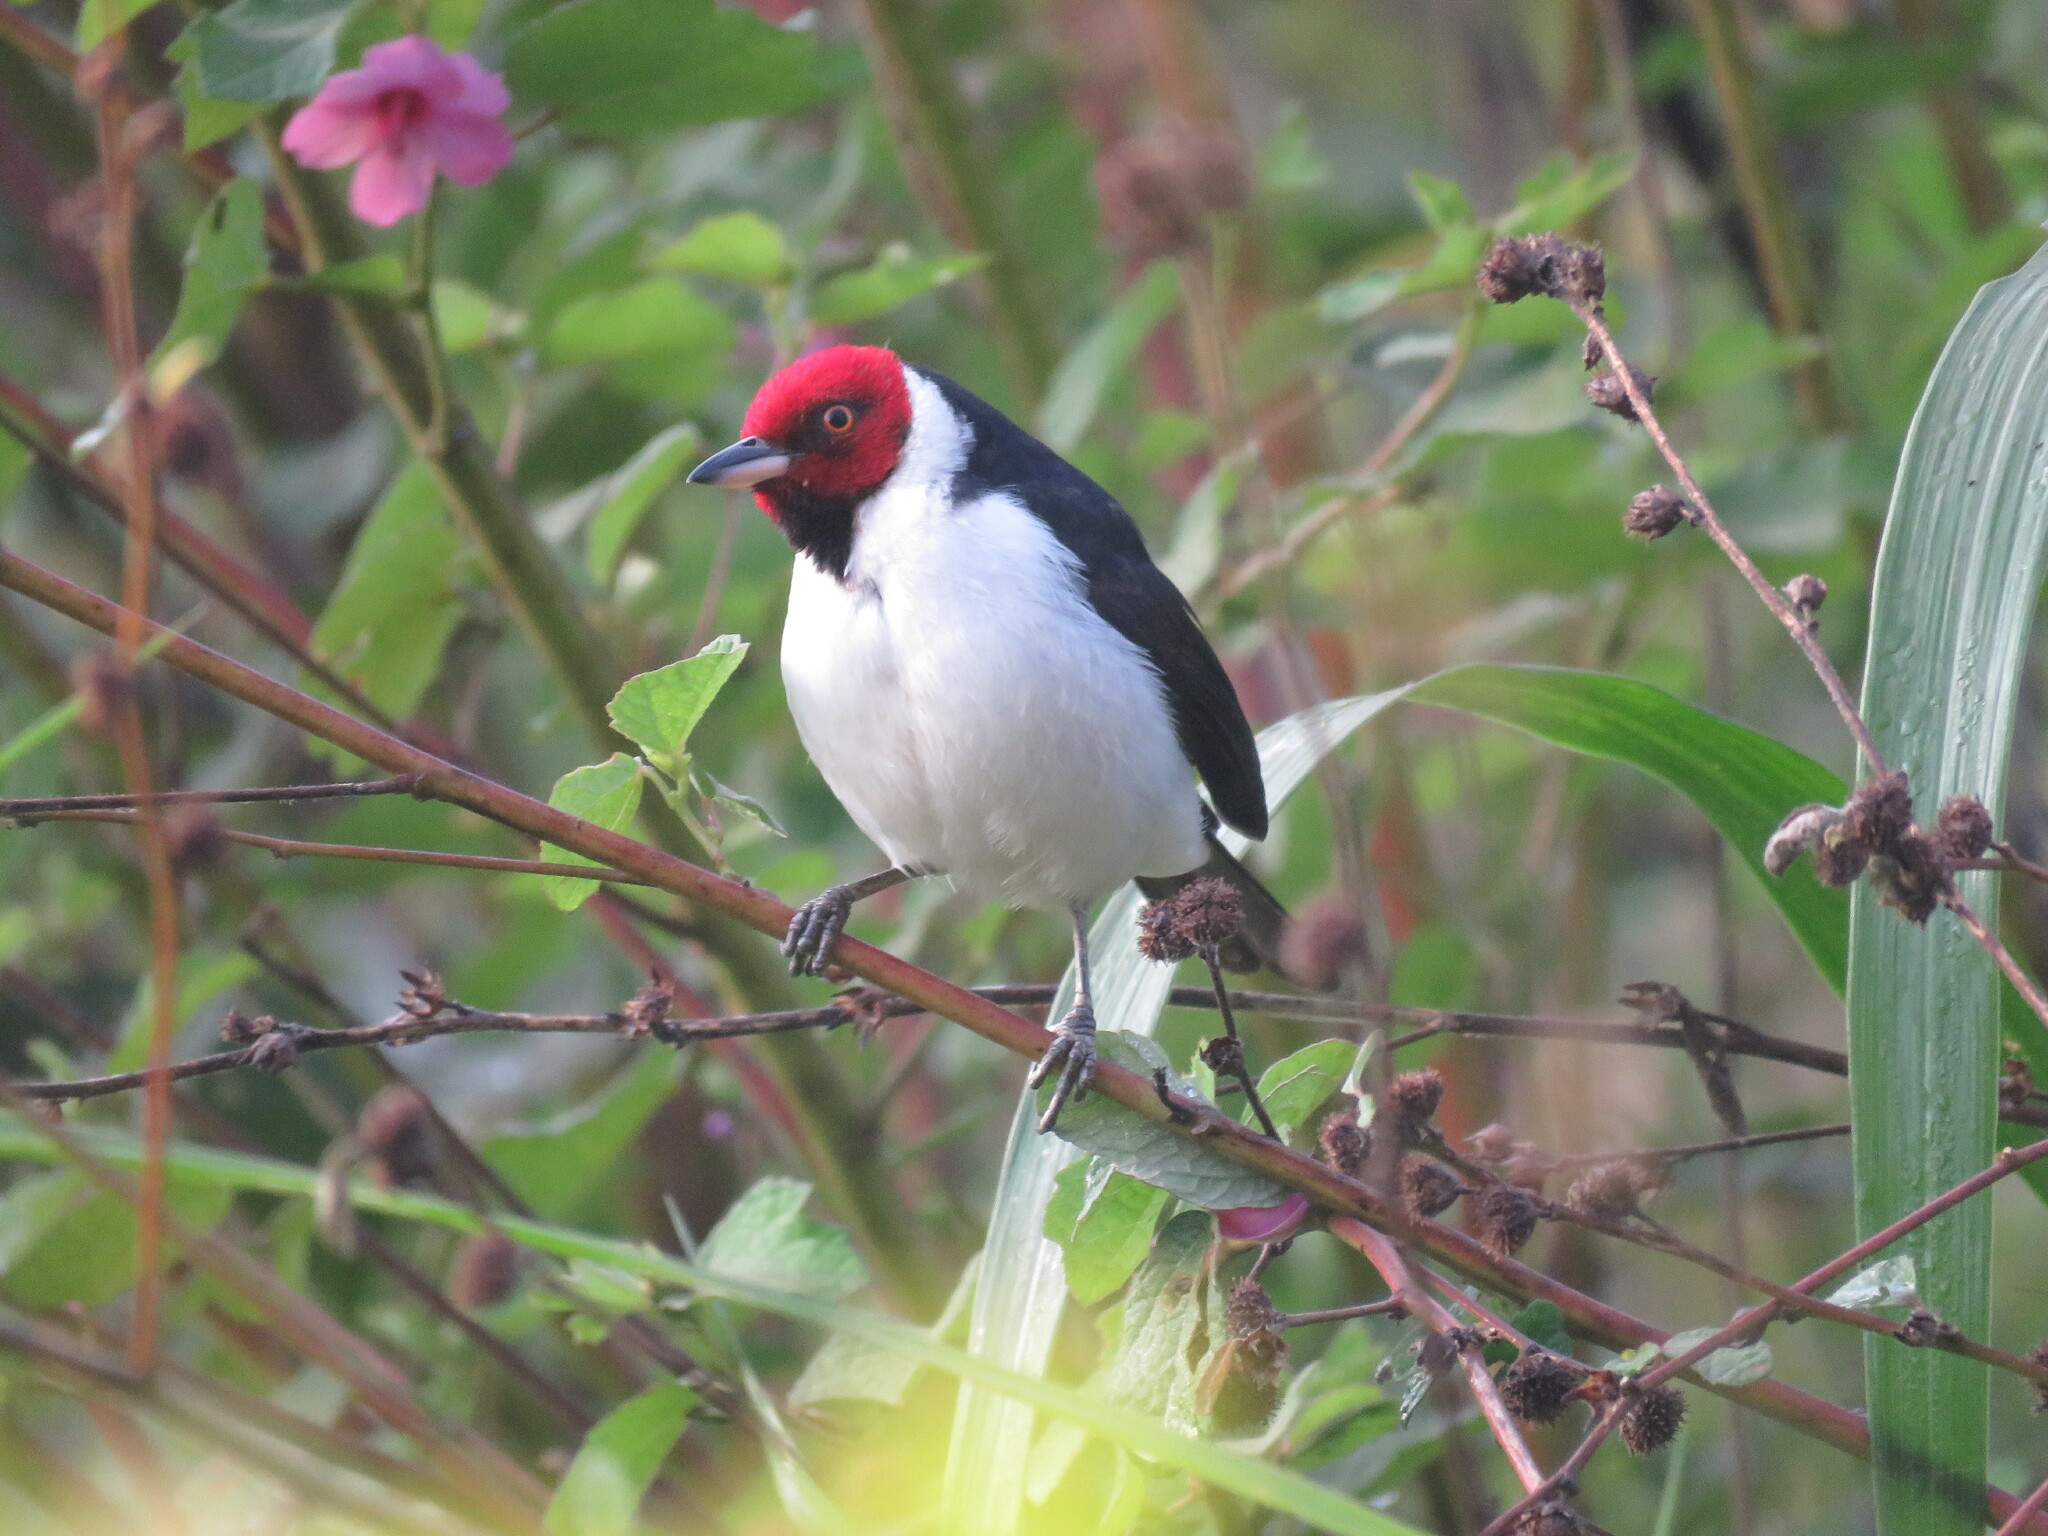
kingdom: Animalia
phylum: Chordata
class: Aves
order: Passeriformes
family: Thraupidae
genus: Paroaria
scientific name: Paroaria gularis
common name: Red-capped cardinal
